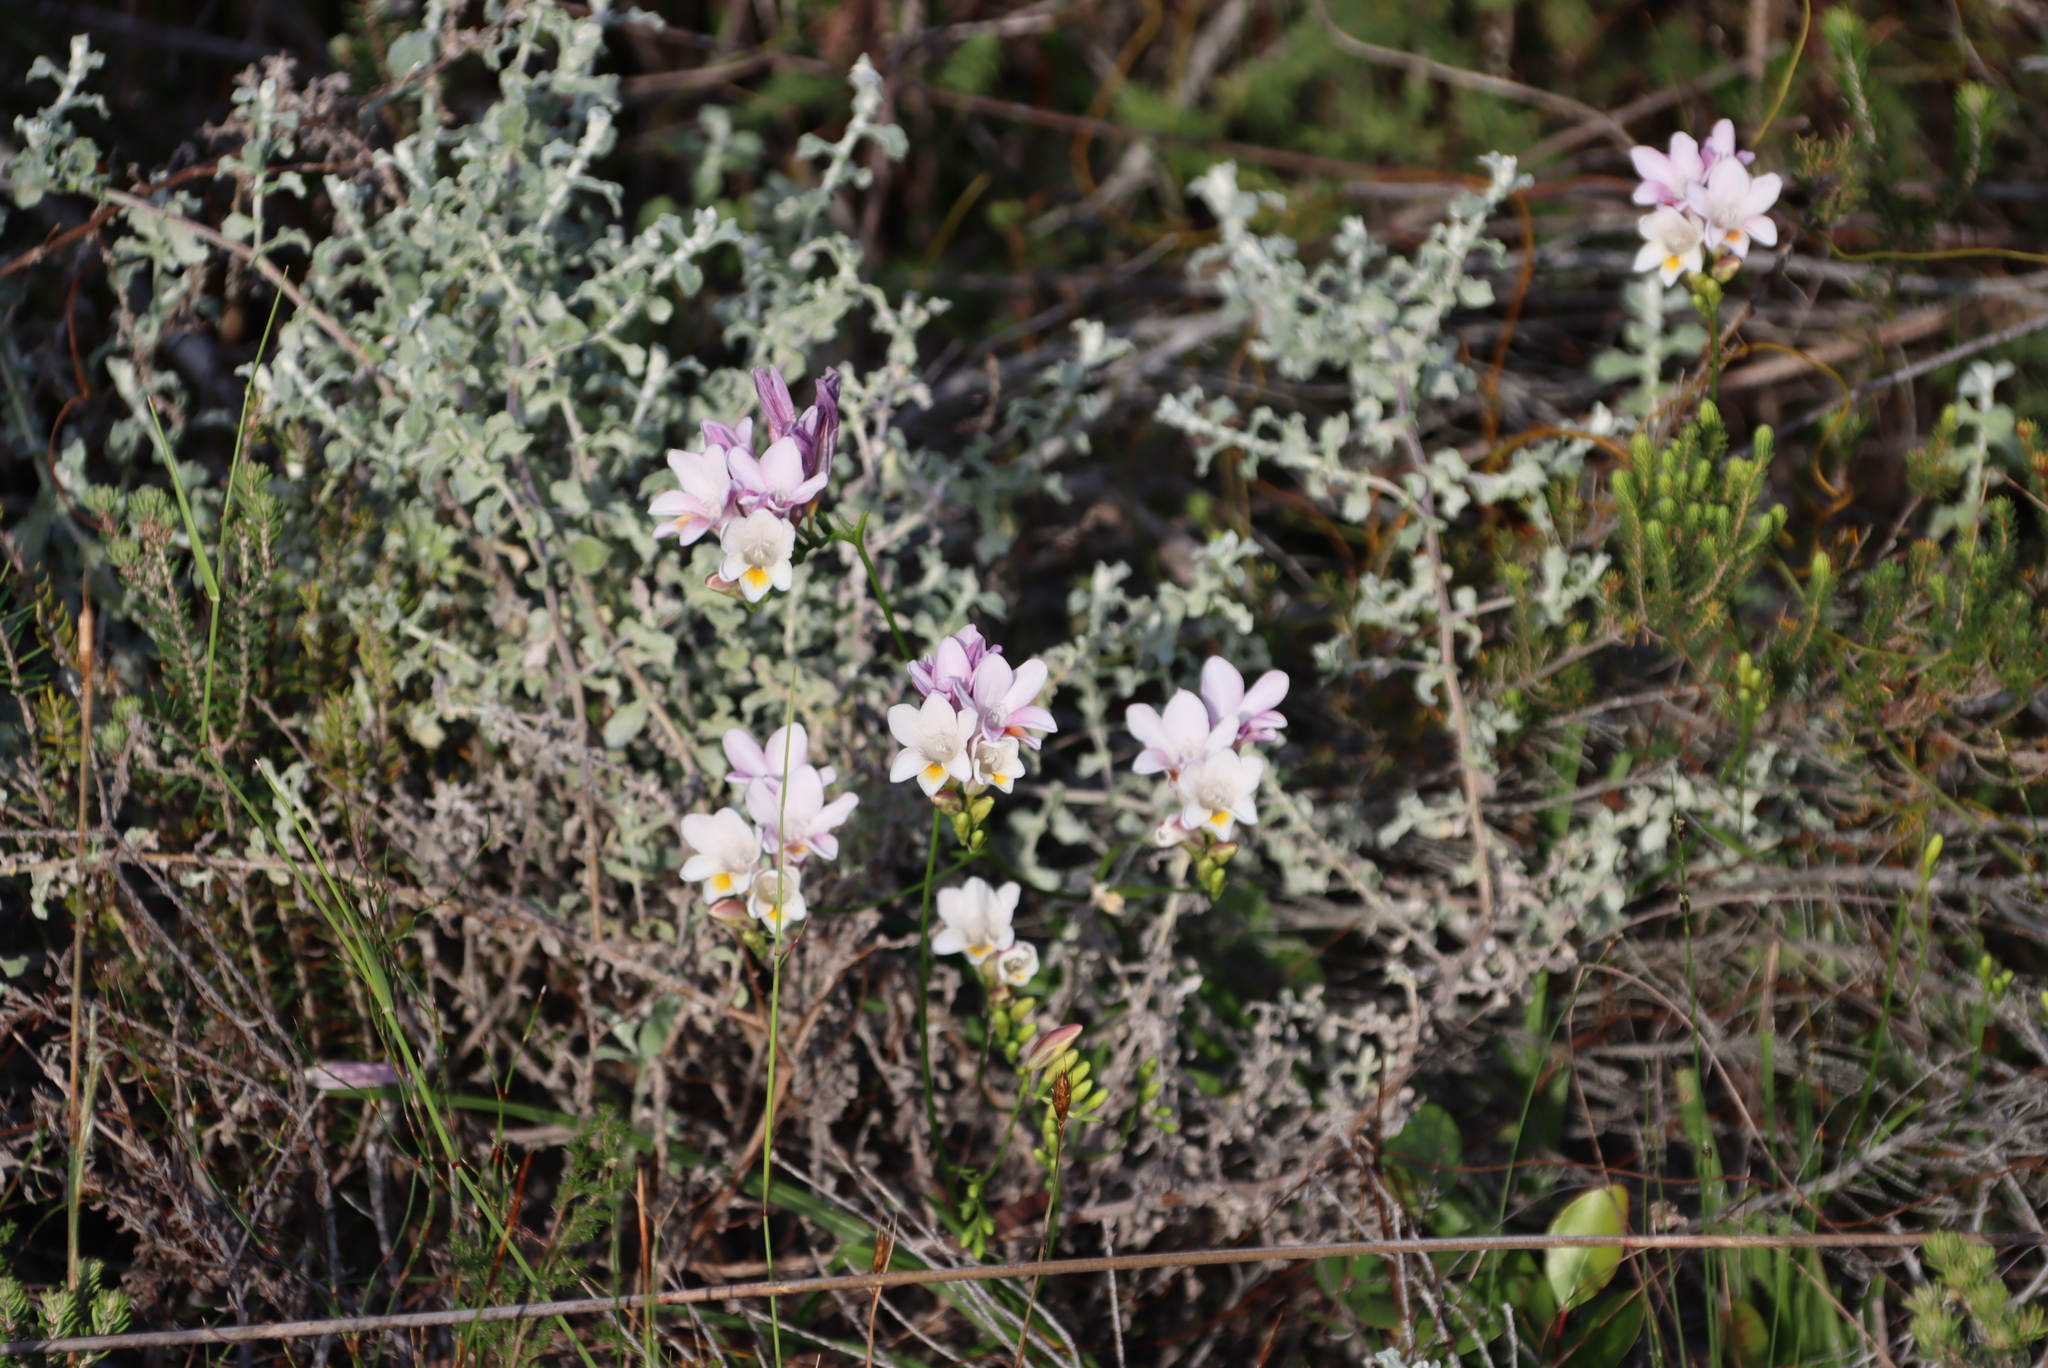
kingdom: Plantae
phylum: Tracheophyta
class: Liliopsida
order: Asparagales
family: Iridaceae
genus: Freesia
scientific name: Freesia leichtlinii
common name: Freesia
